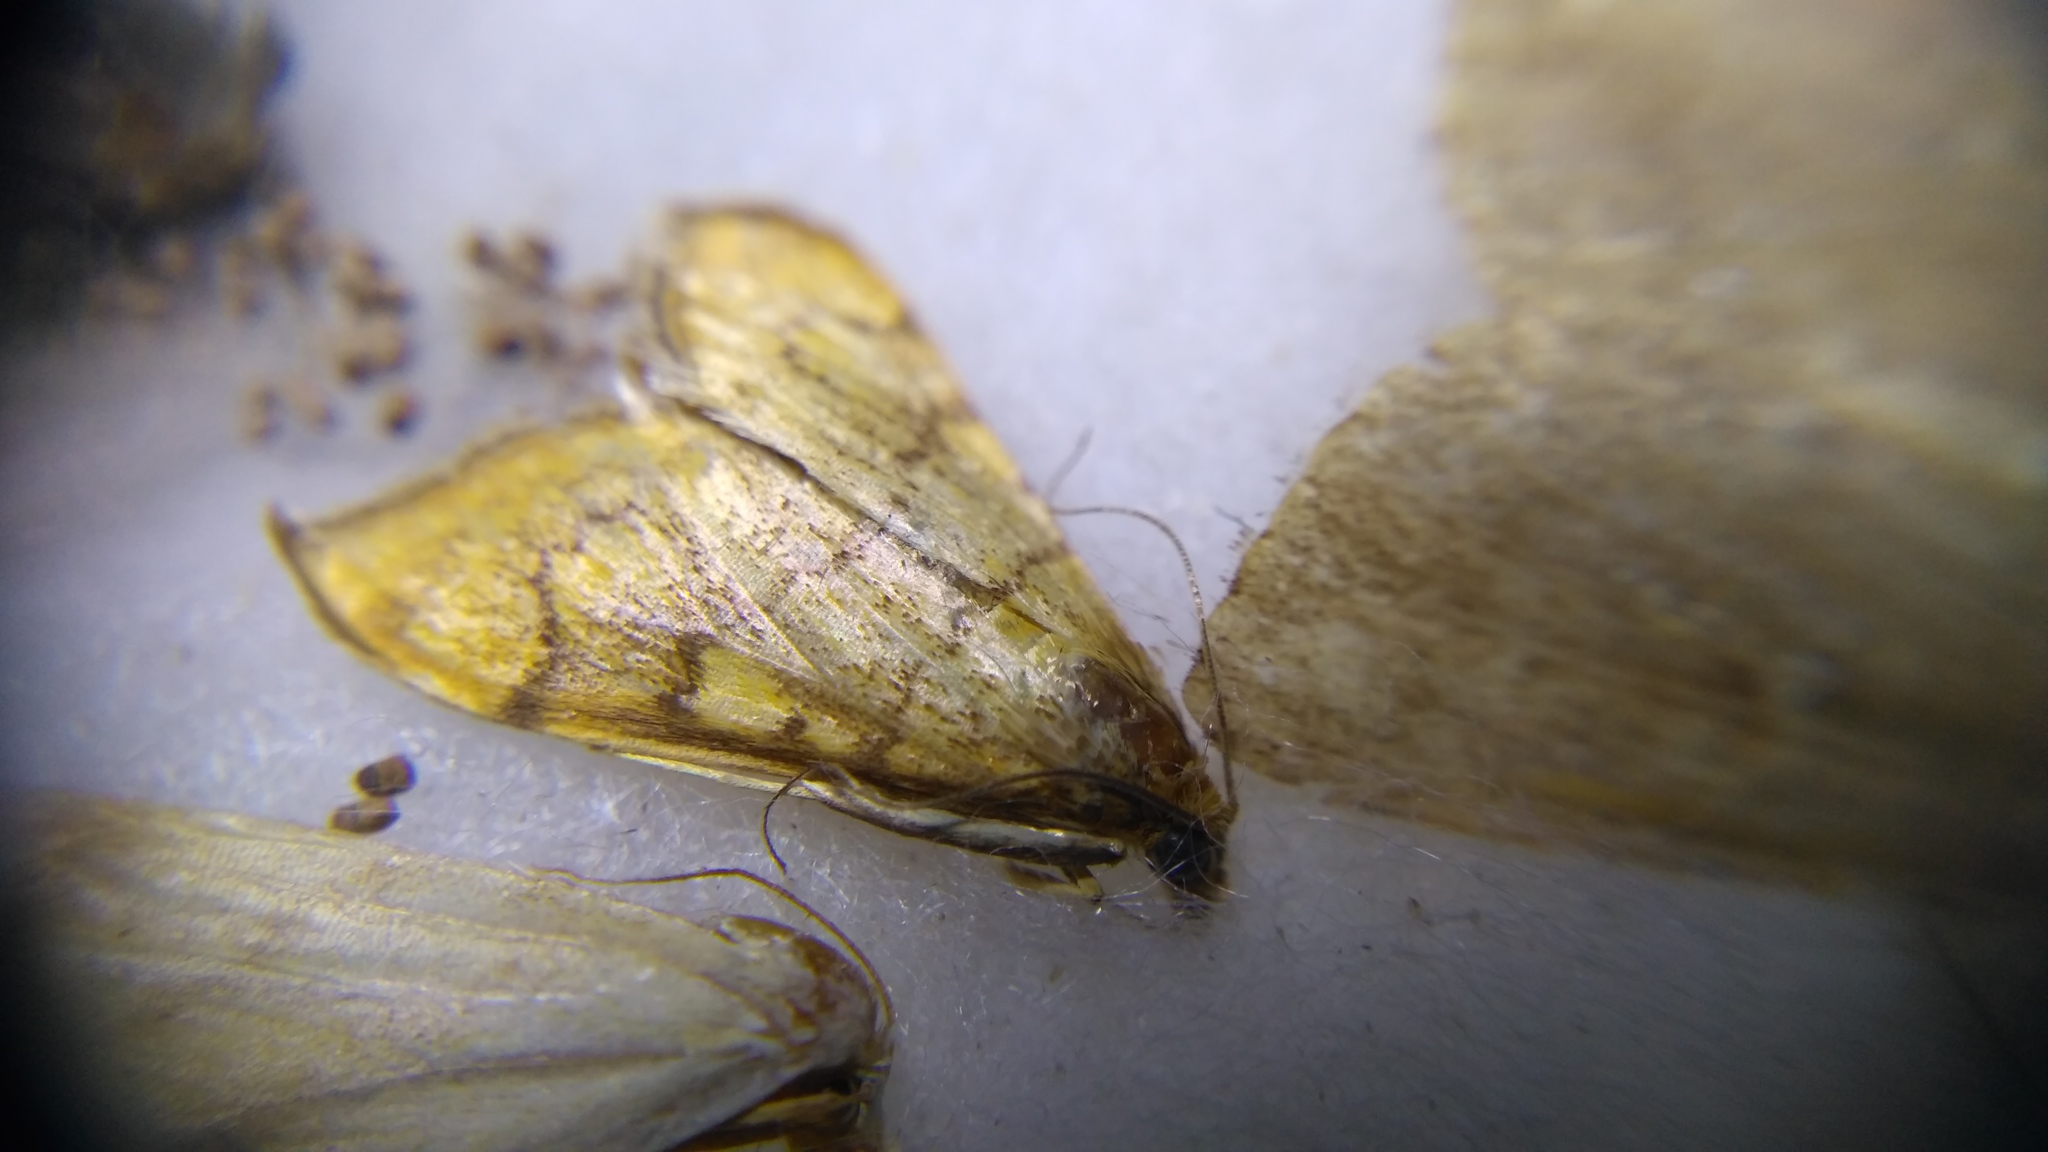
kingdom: Animalia
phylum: Arthropoda
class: Insecta
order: Lepidoptera
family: Crambidae
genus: Anania
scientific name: Anania verbascalis
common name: Golden pearl
